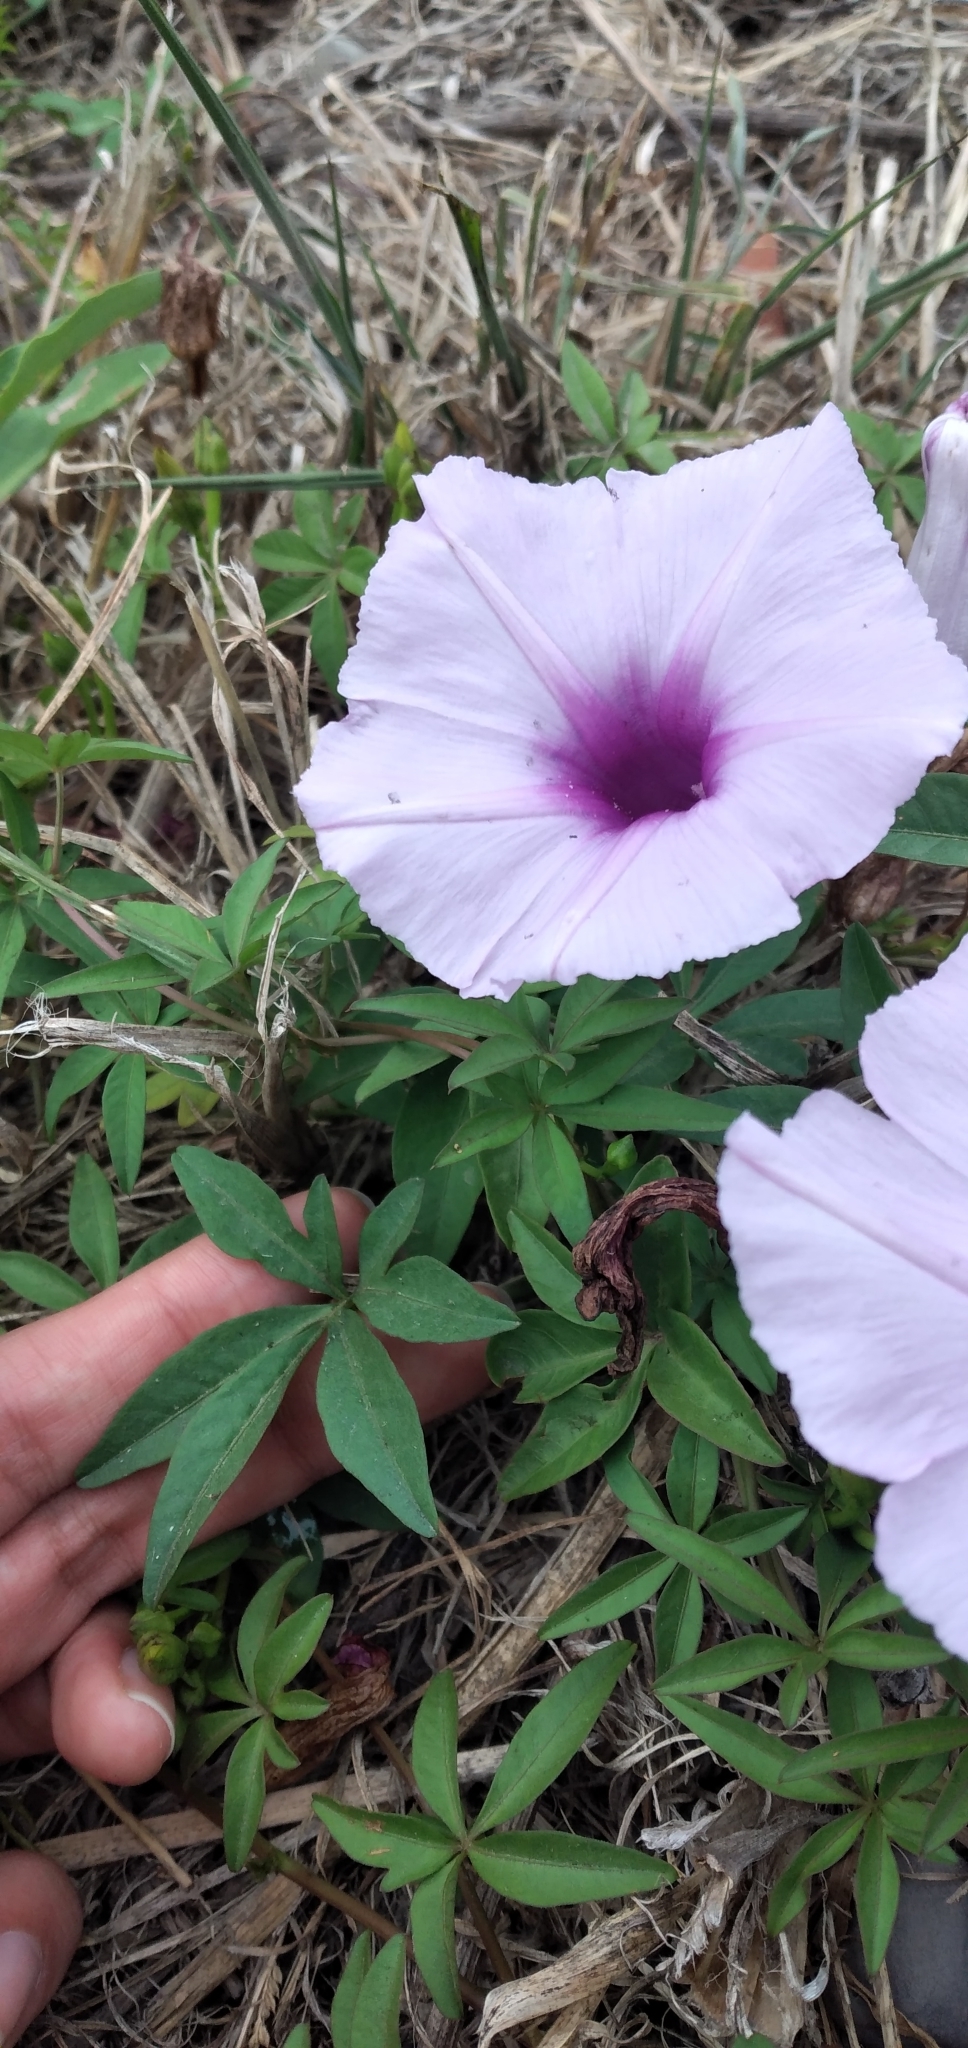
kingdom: Plantae
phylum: Tracheophyta
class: Magnoliopsida
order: Solanales
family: Convolvulaceae
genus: Ipomoea
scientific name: Ipomoea cairica
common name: Mile a minute vine
